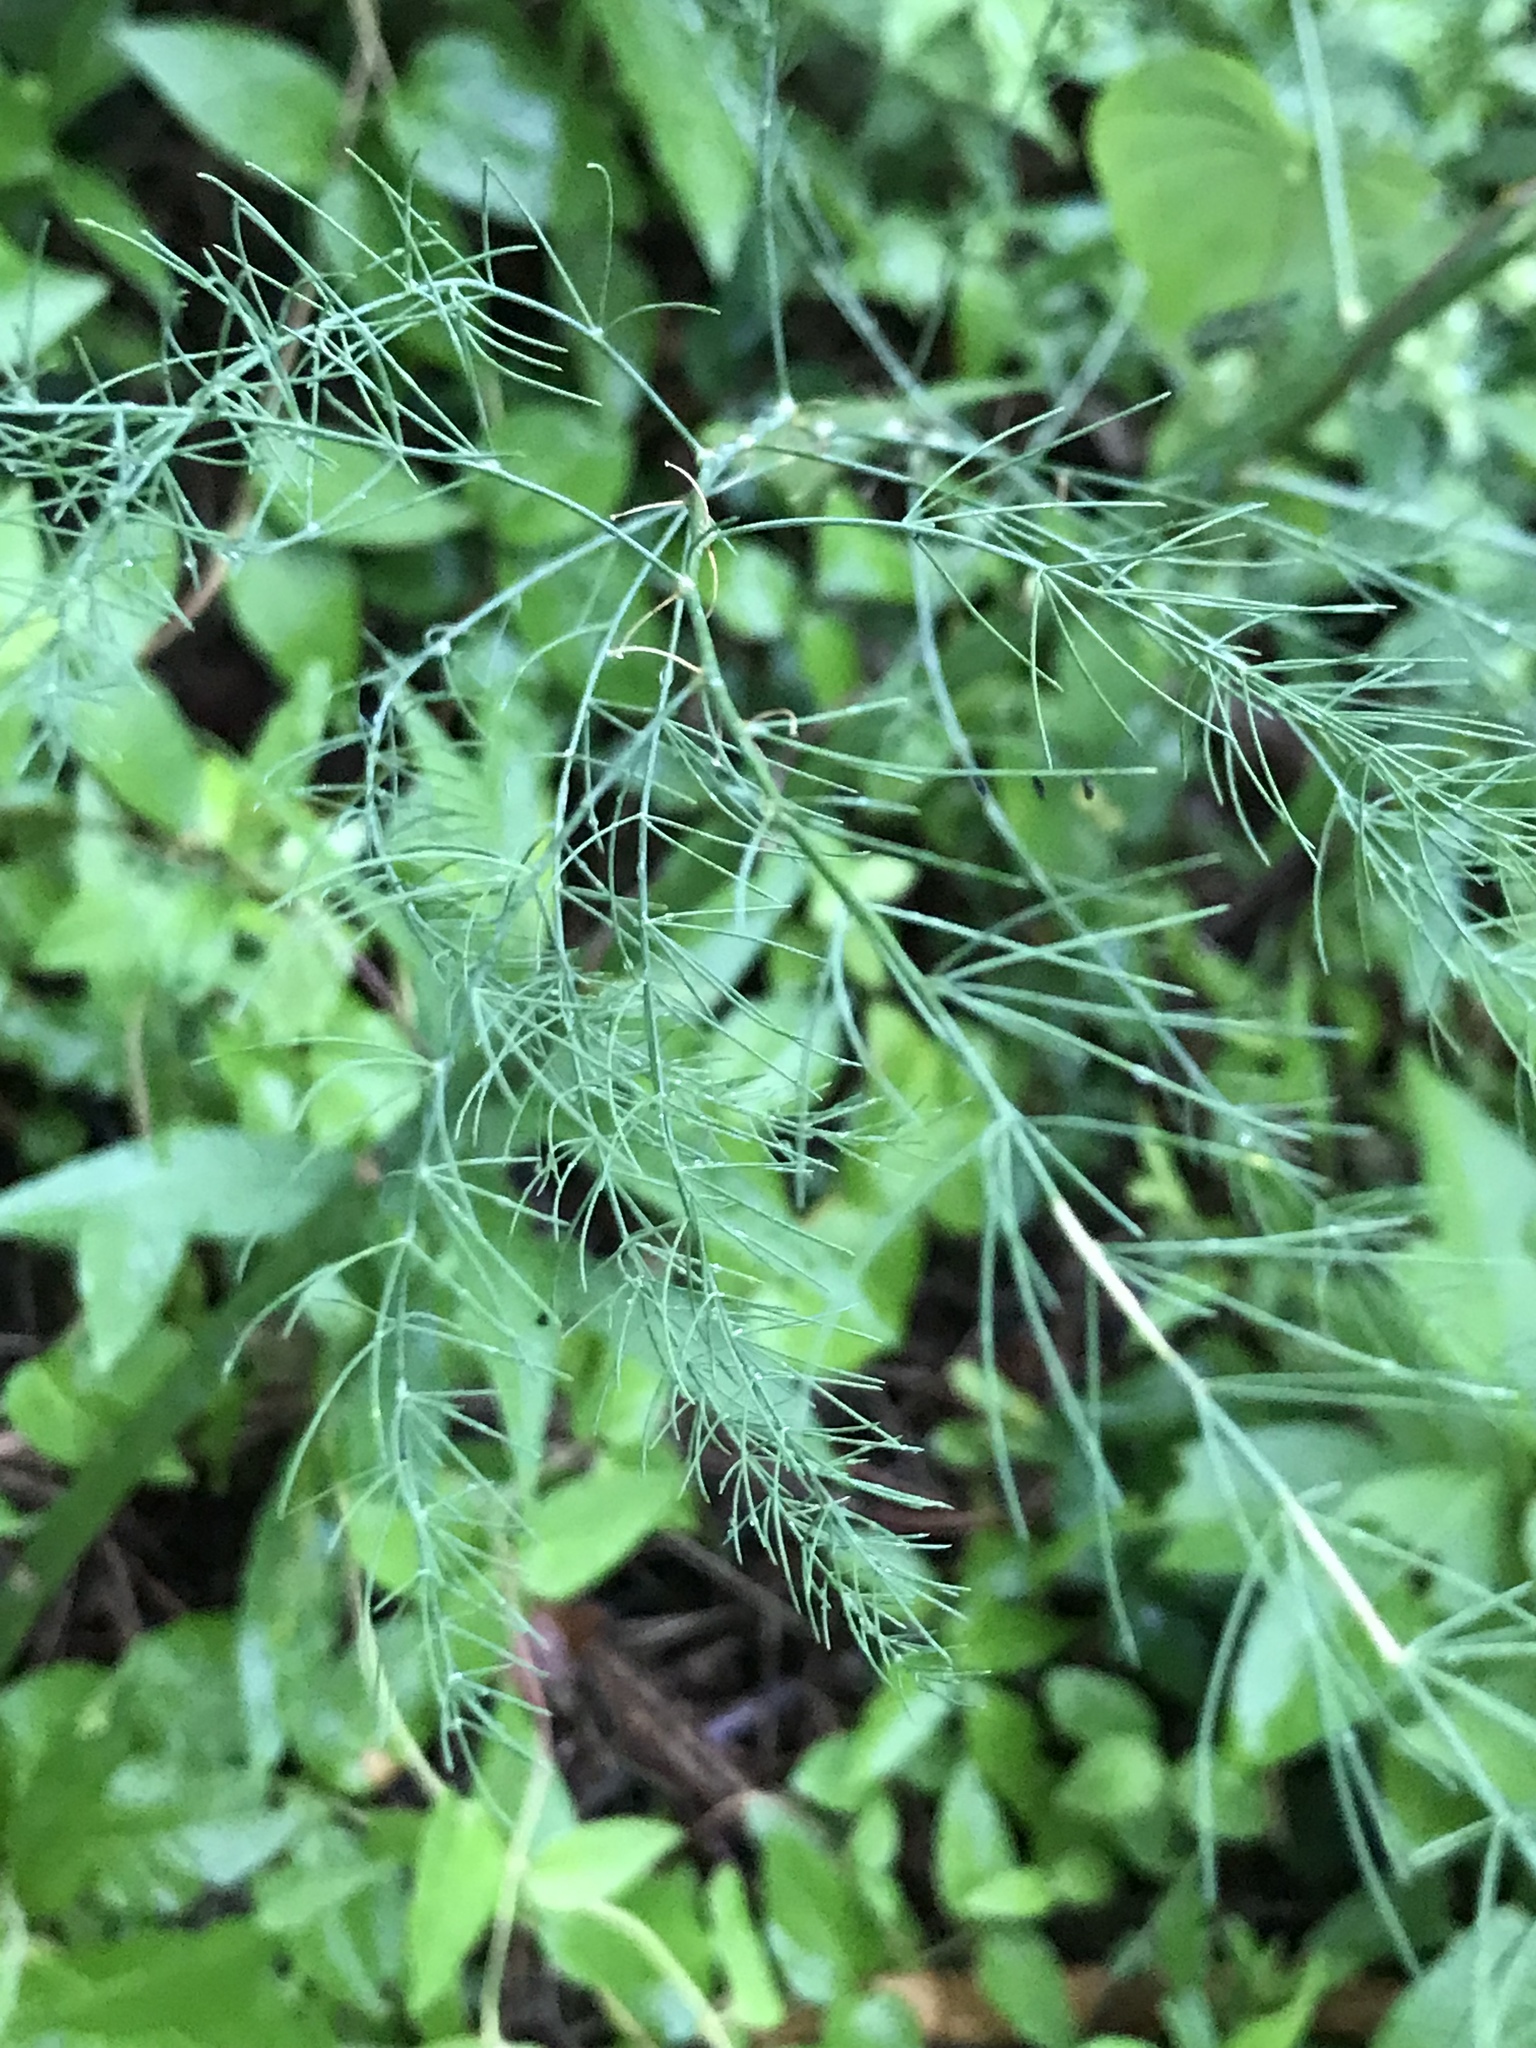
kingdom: Plantae
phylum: Tracheophyta
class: Liliopsida
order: Asparagales
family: Asparagaceae
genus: Asparagus
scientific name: Asparagus officinalis
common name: Garden asparagus
